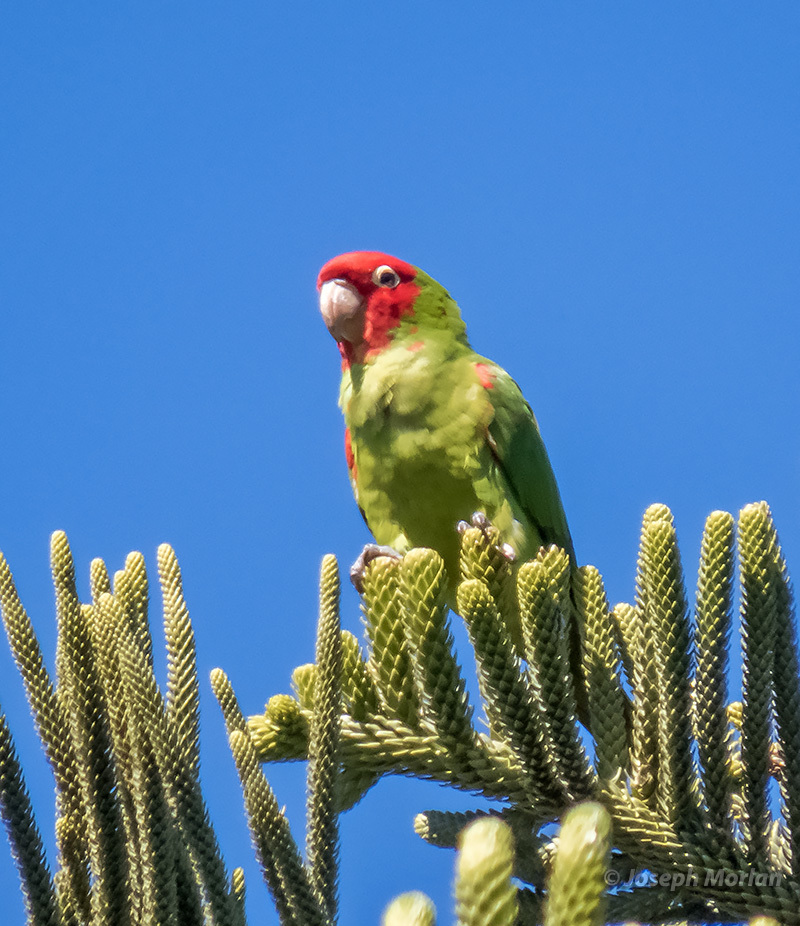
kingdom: Animalia
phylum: Chordata
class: Aves
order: Psittaciformes
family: Psittacidae
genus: Aratinga
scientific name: Aratinga erythrogenys
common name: Red-masked parakeet
